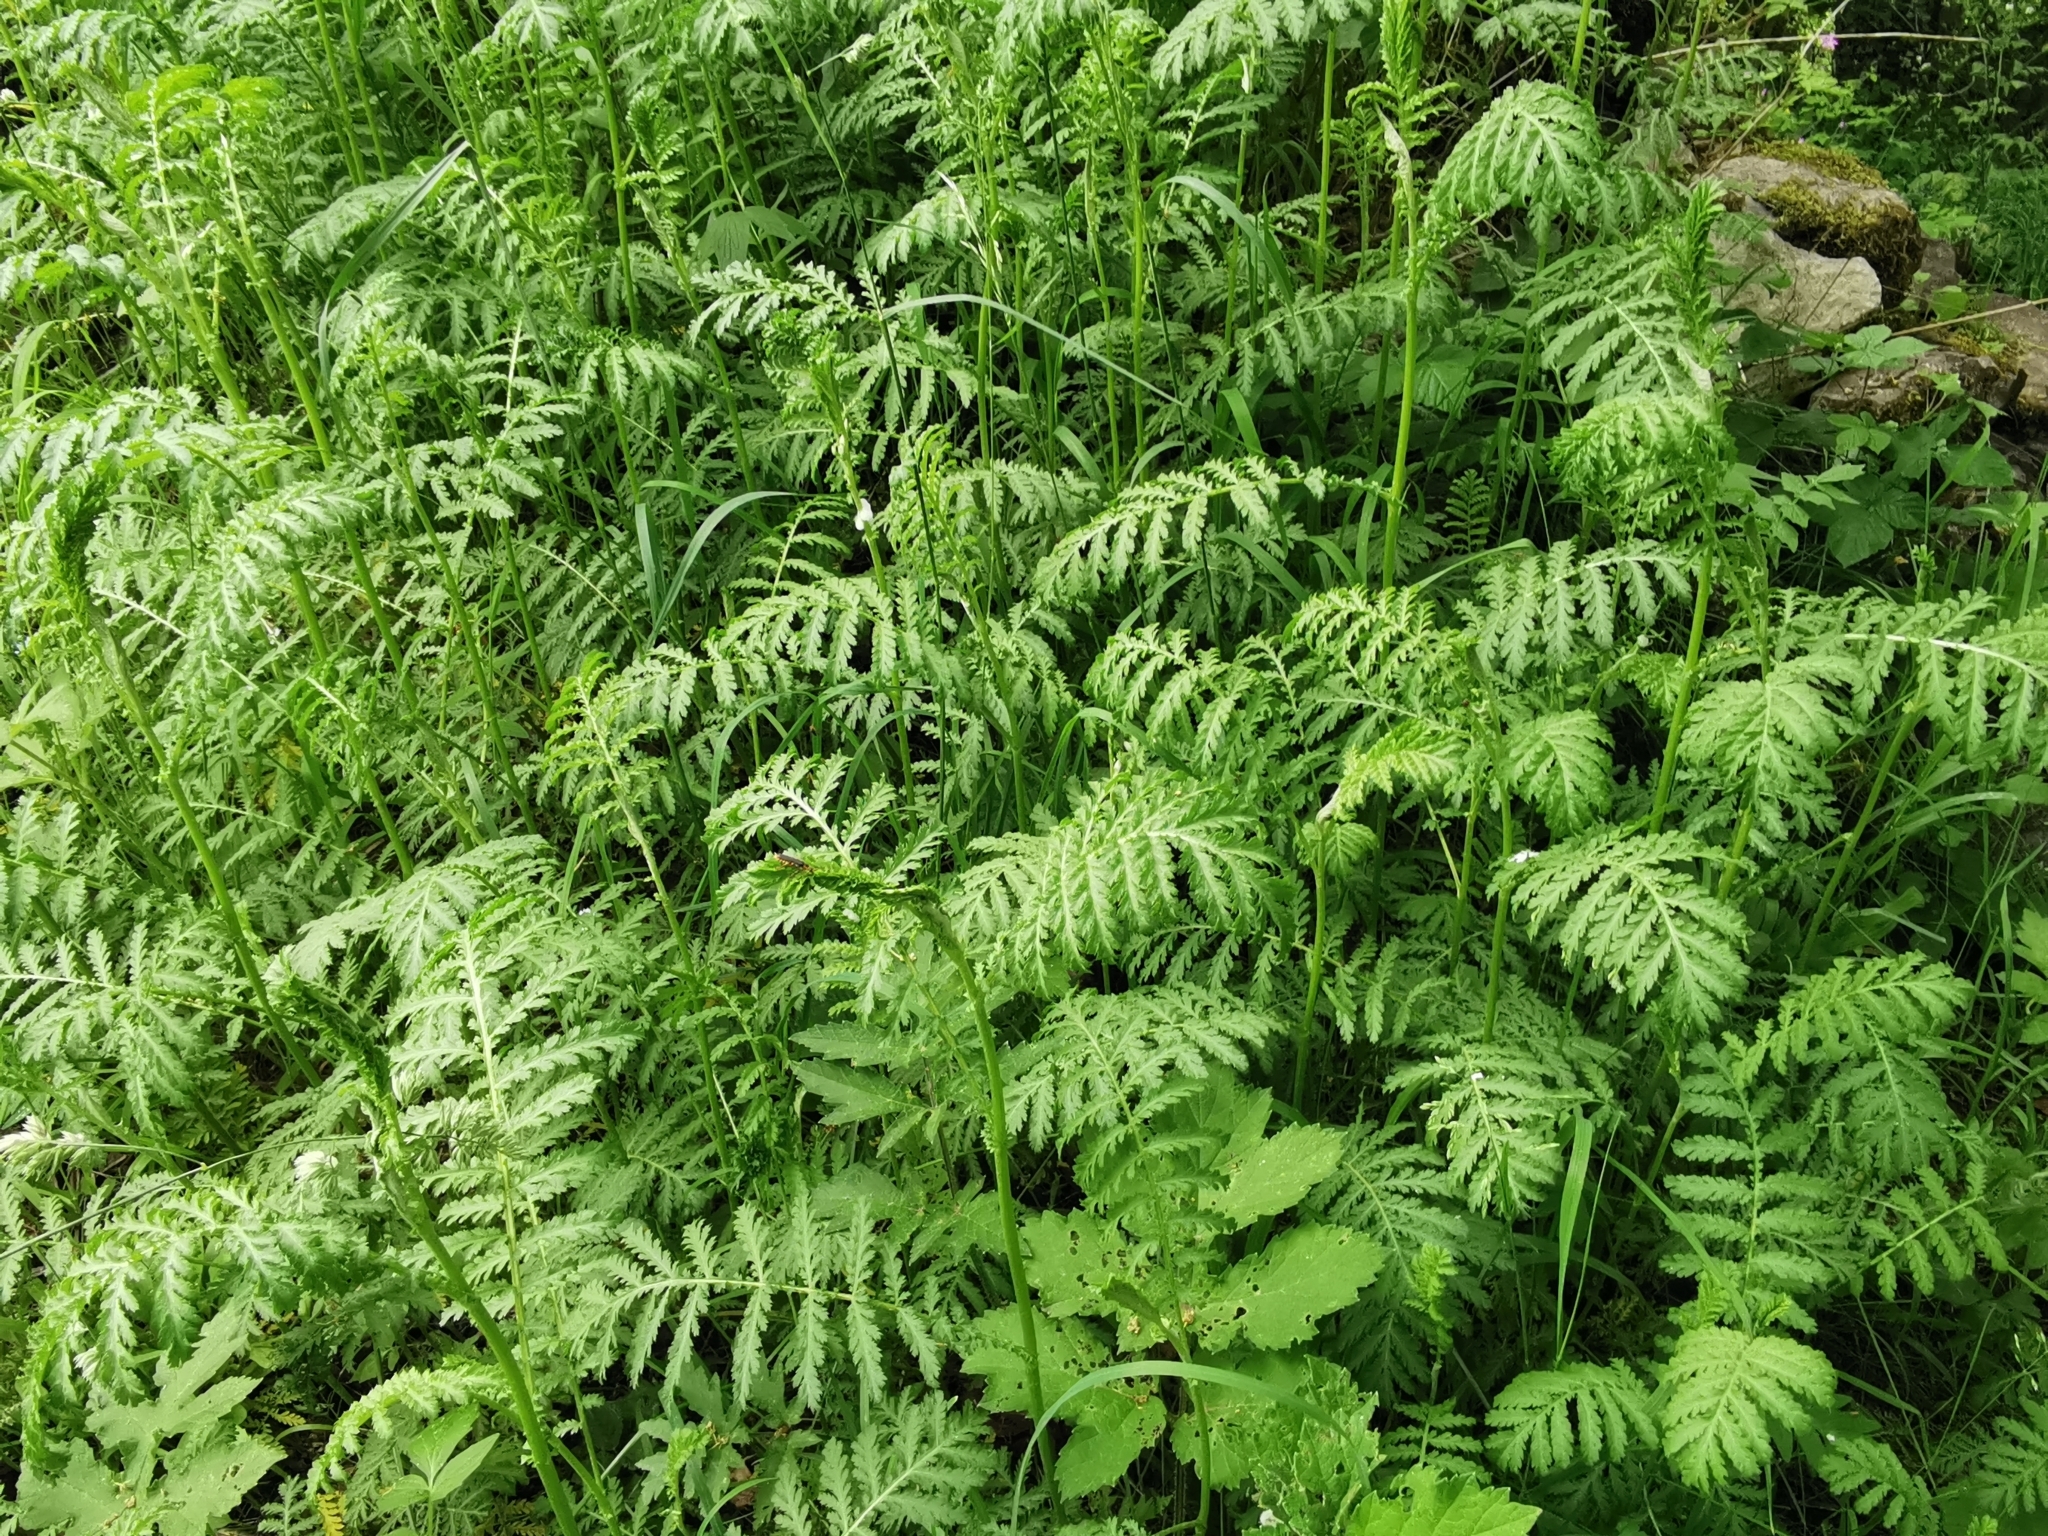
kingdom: Plantae
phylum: Tracheophyta
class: Magnoliopsida
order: Asterales
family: Asteraceae
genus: Tanacetum
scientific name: Tanacetum vulgare
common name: Common tansy
